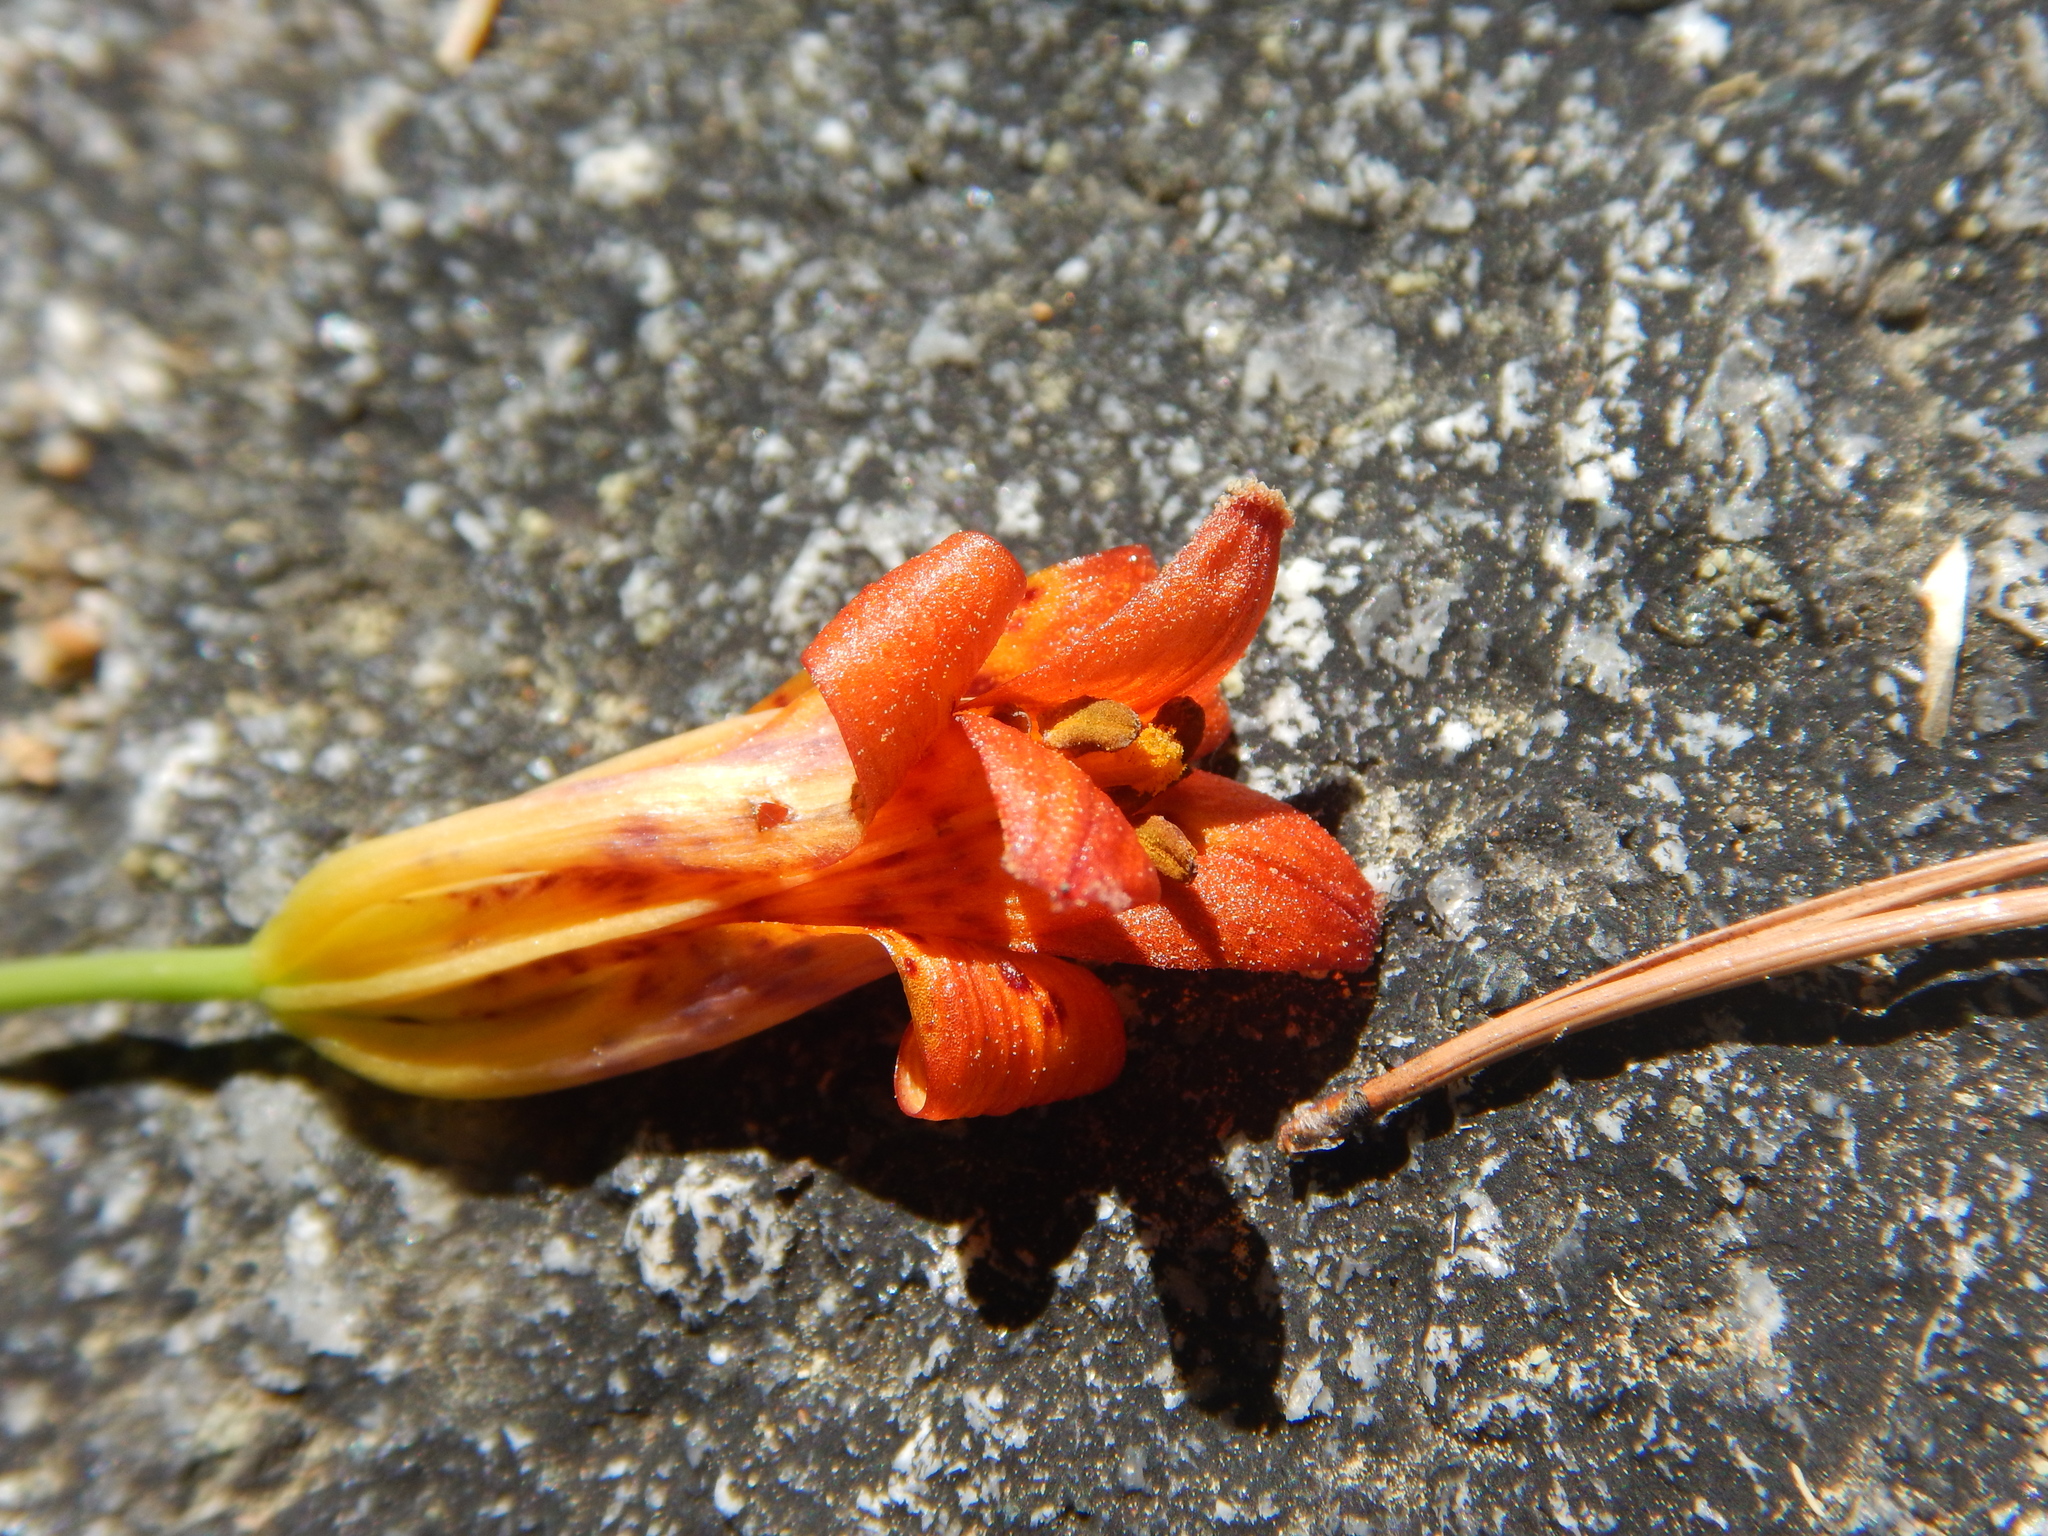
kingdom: Plantae
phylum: Tracheophyta
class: Liliopsida
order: Liliales
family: Liliaceae
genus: Lilium
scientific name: Lilium parvum
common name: Alpine lily
